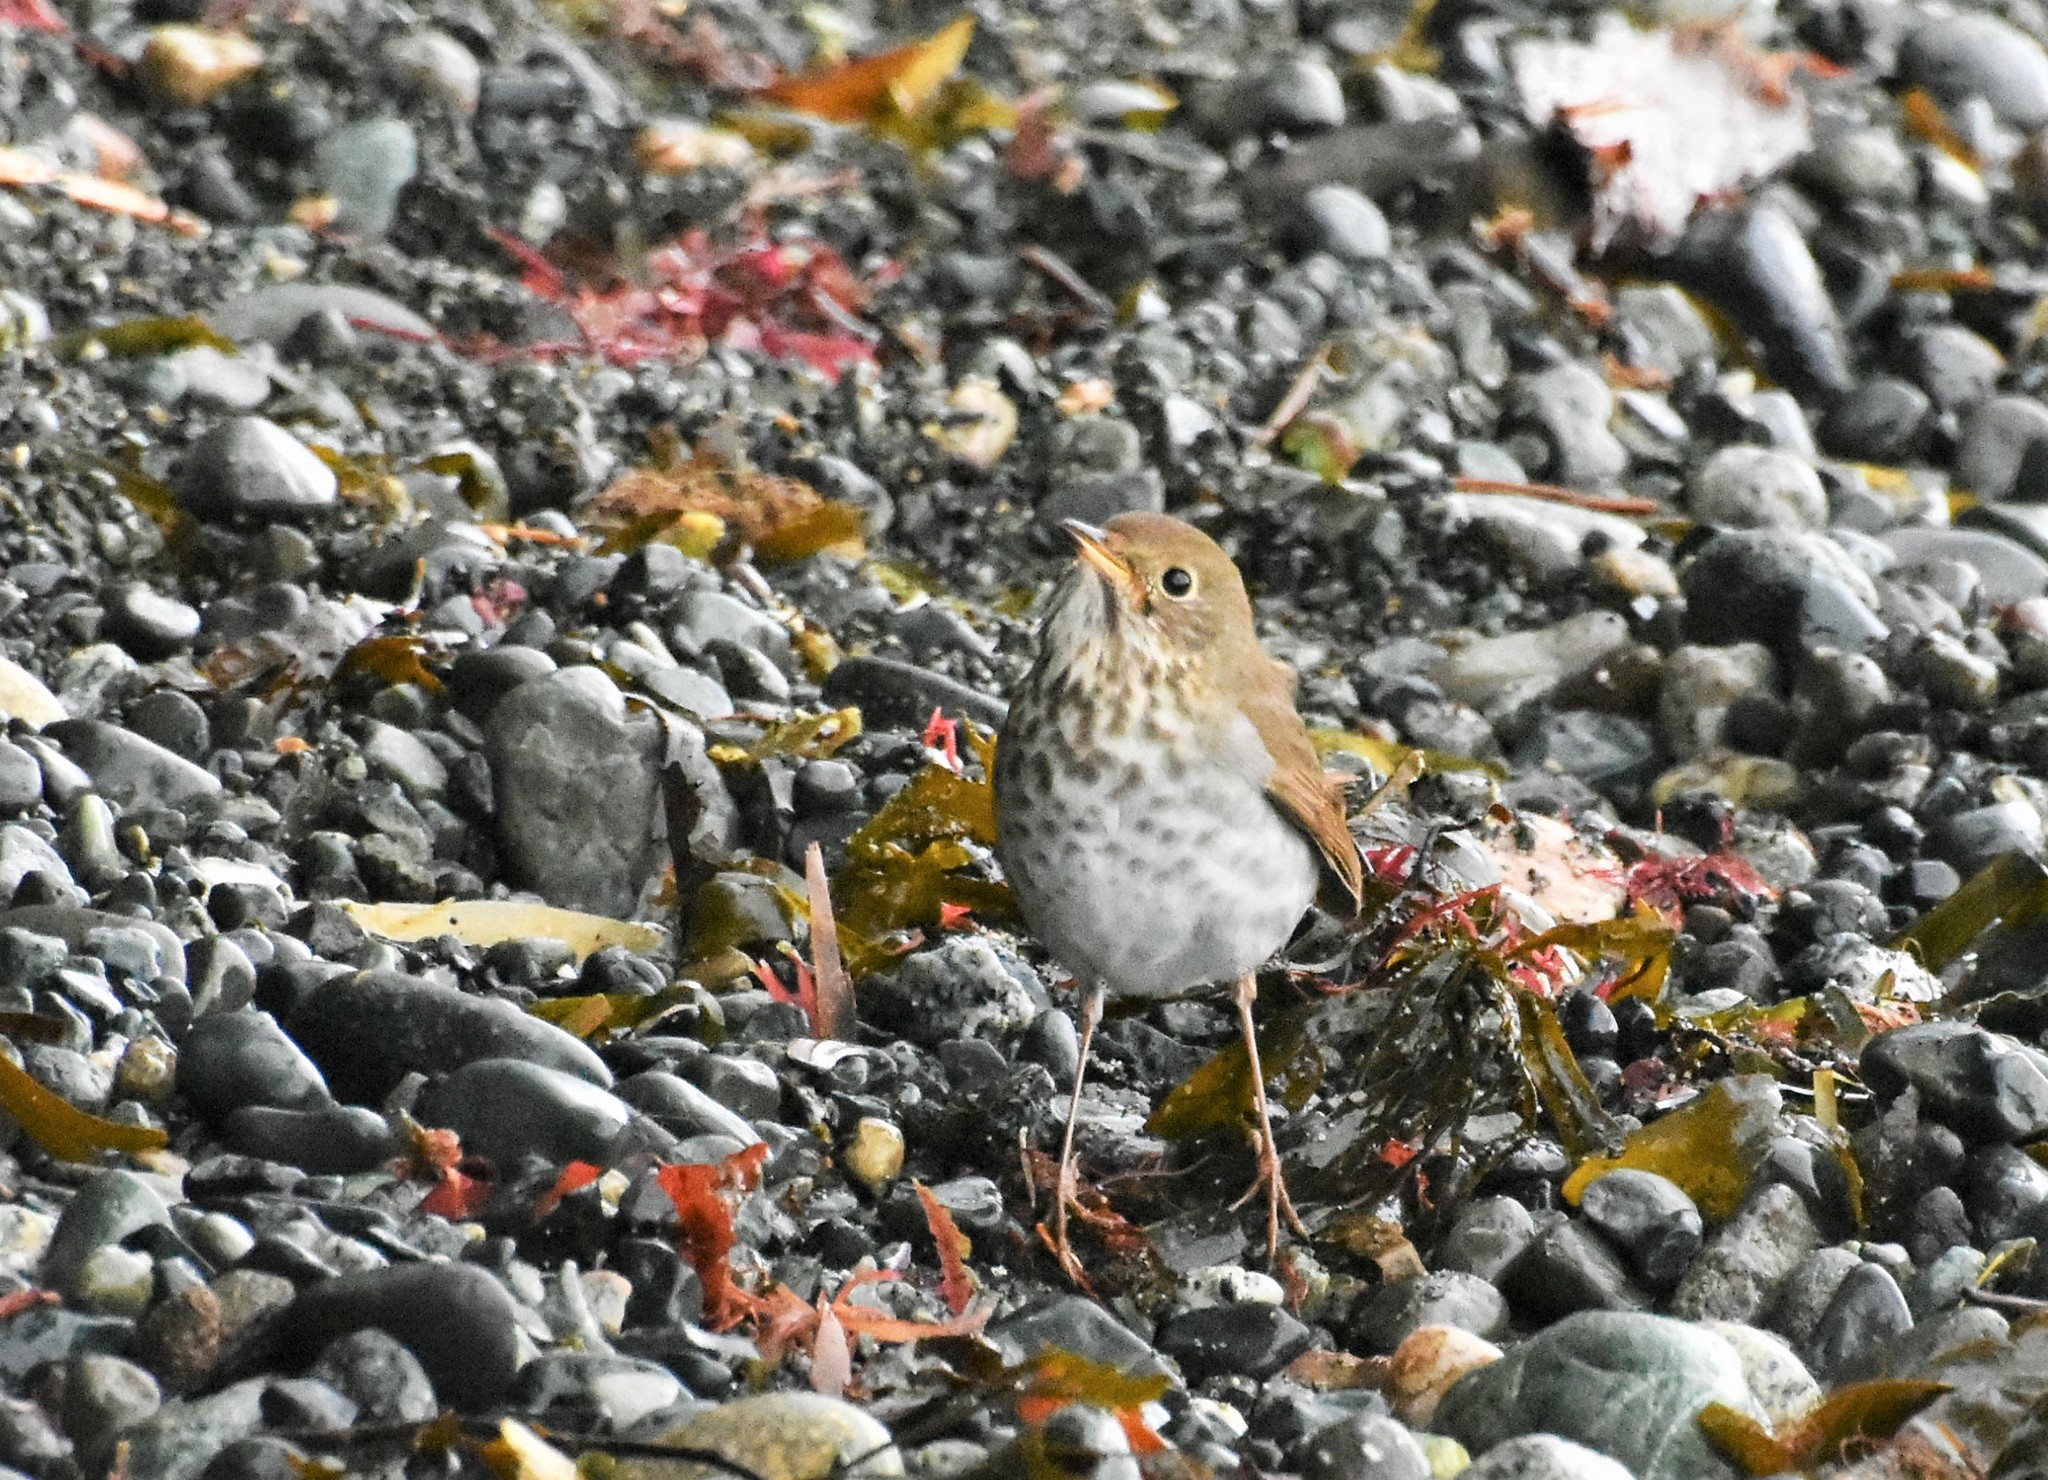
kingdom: Animalia
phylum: Chordata
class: Aves
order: Passeriformes
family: Turdidae
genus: Catharus
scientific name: Catharus guttatus
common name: Hermit thrush
